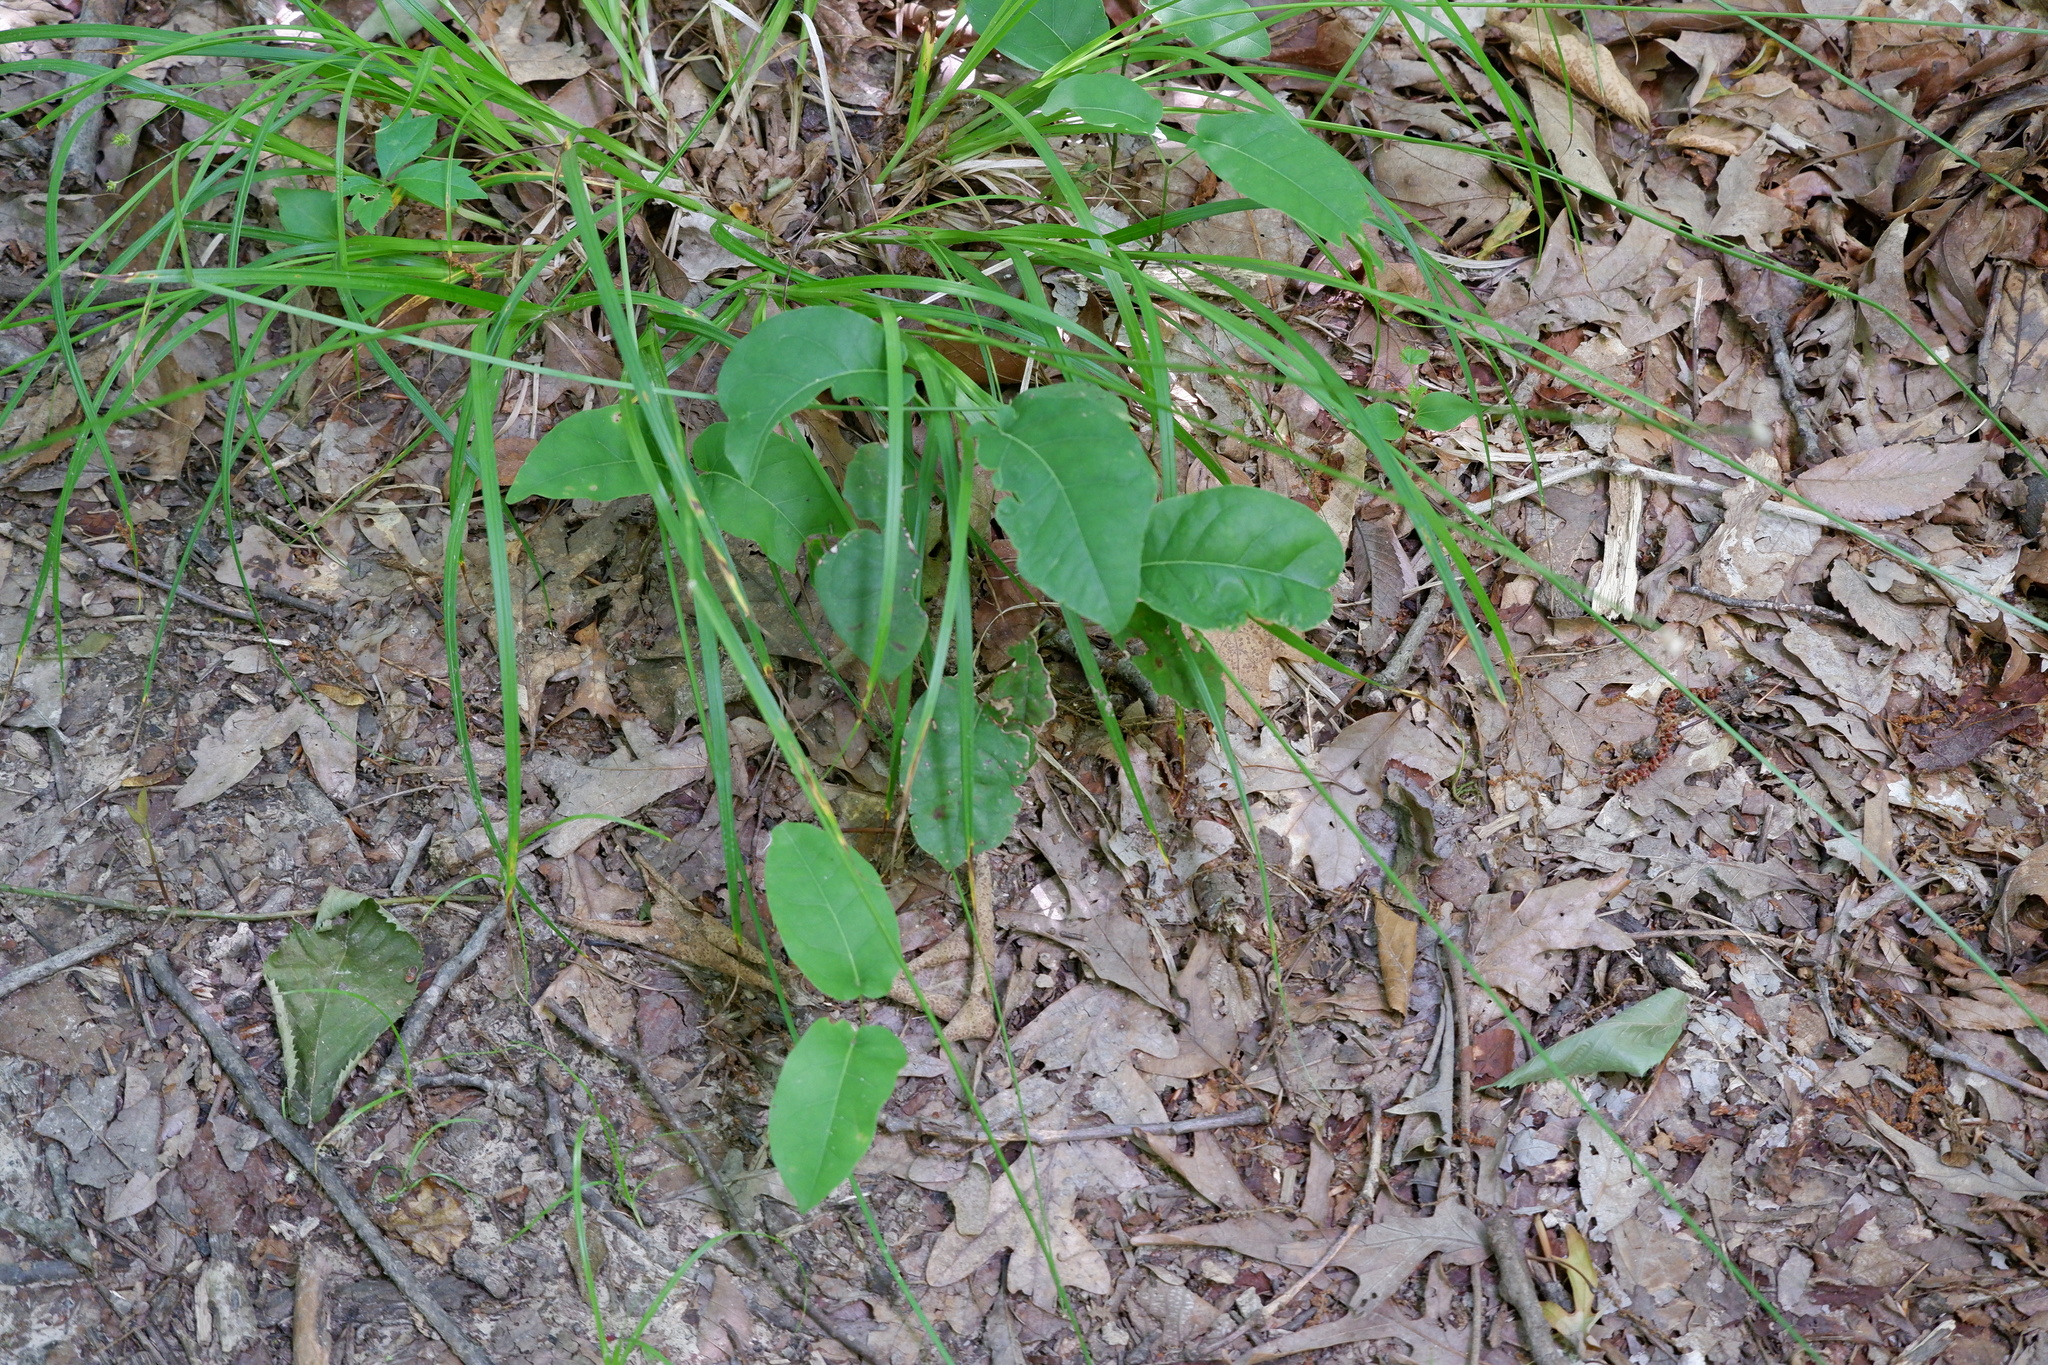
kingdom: Plantae
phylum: Tracheophyta
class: Magnoliopsida
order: Lamiales
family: Bignoniaceae
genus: Bignonia
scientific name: Bignonia capreolata
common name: Crossvine
